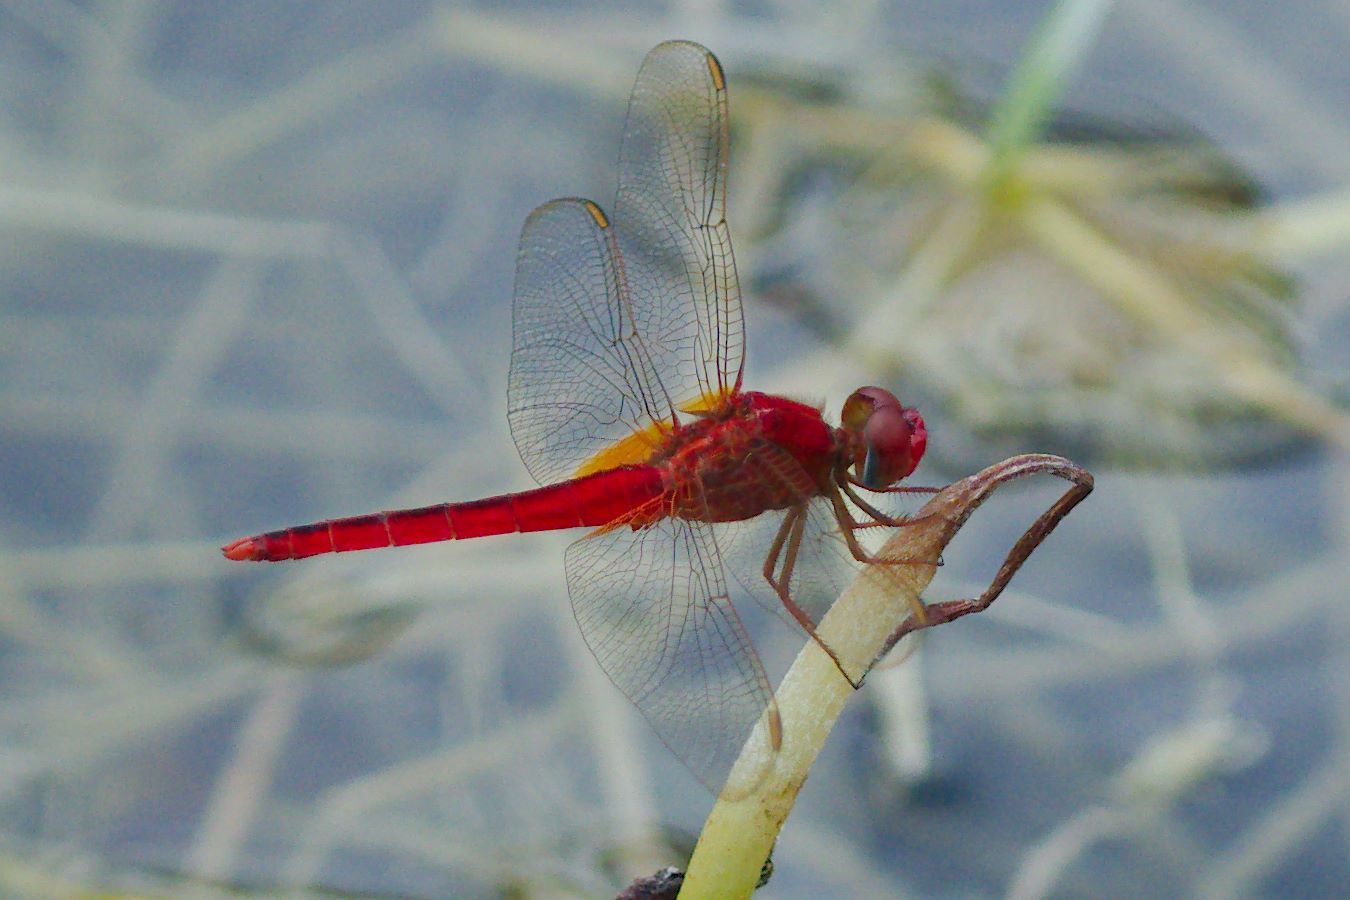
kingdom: Animalia
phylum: Arthropoda
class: Insecta
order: Odonata
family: Libellulidae
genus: Crocothemis
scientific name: Crocothemis servilia
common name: Scarlet skimmer
